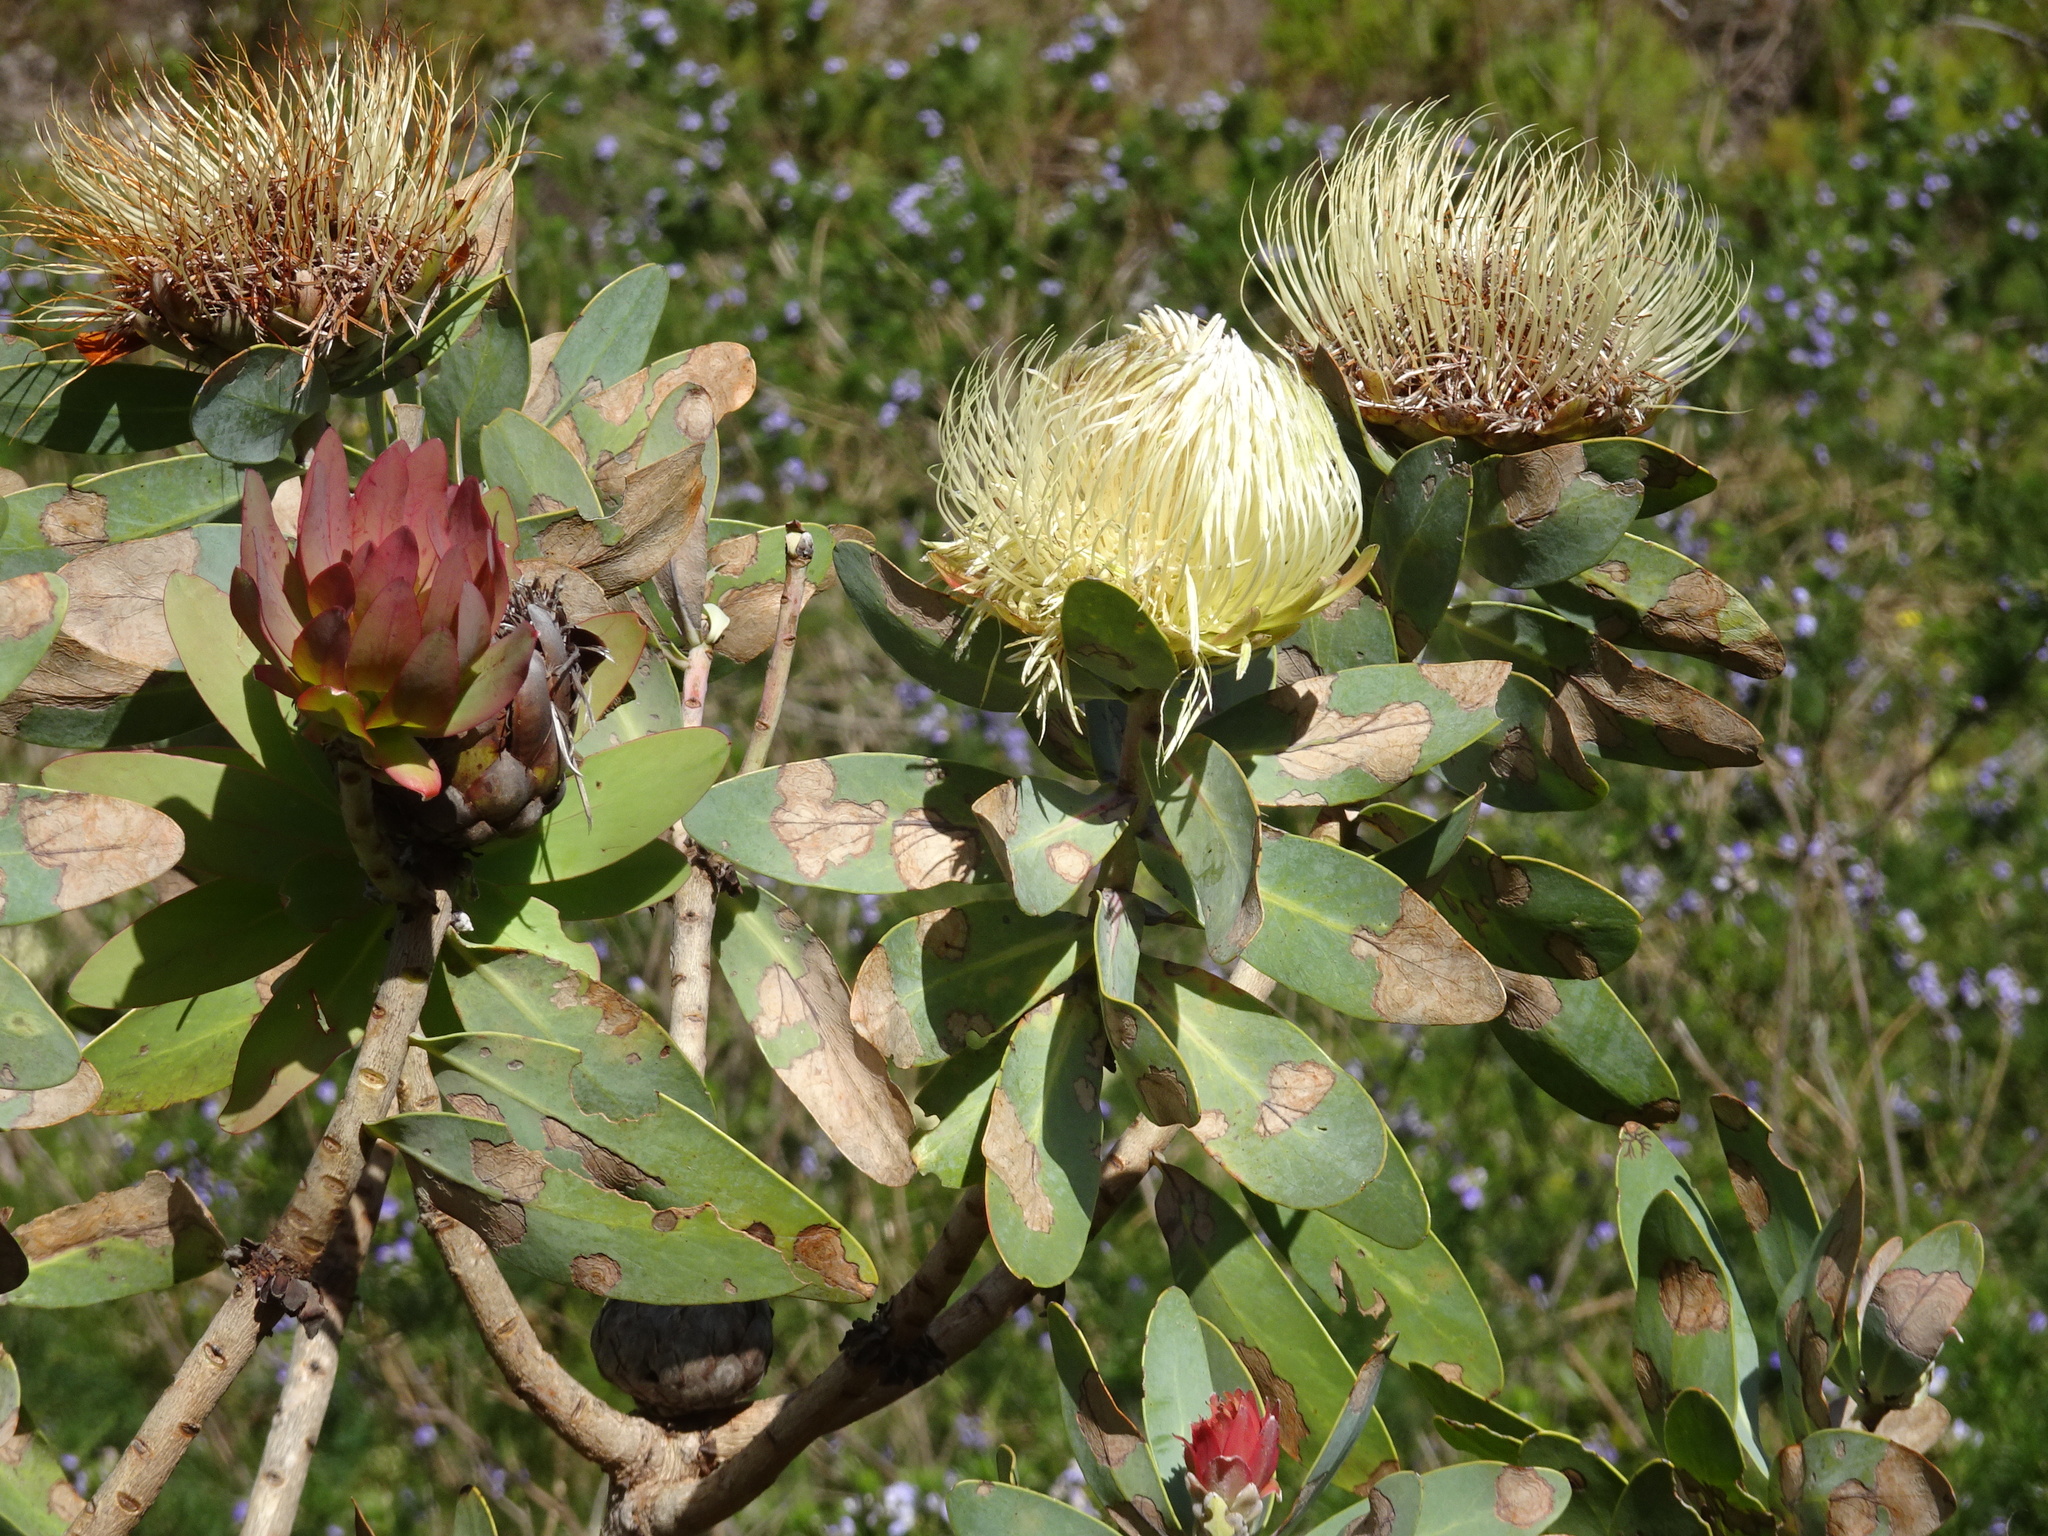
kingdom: Plantae
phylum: Tracheophyta
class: Magnoliopsida
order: Proteales
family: Proteaceae
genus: Protea
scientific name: Protea nitida
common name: Tree protea
